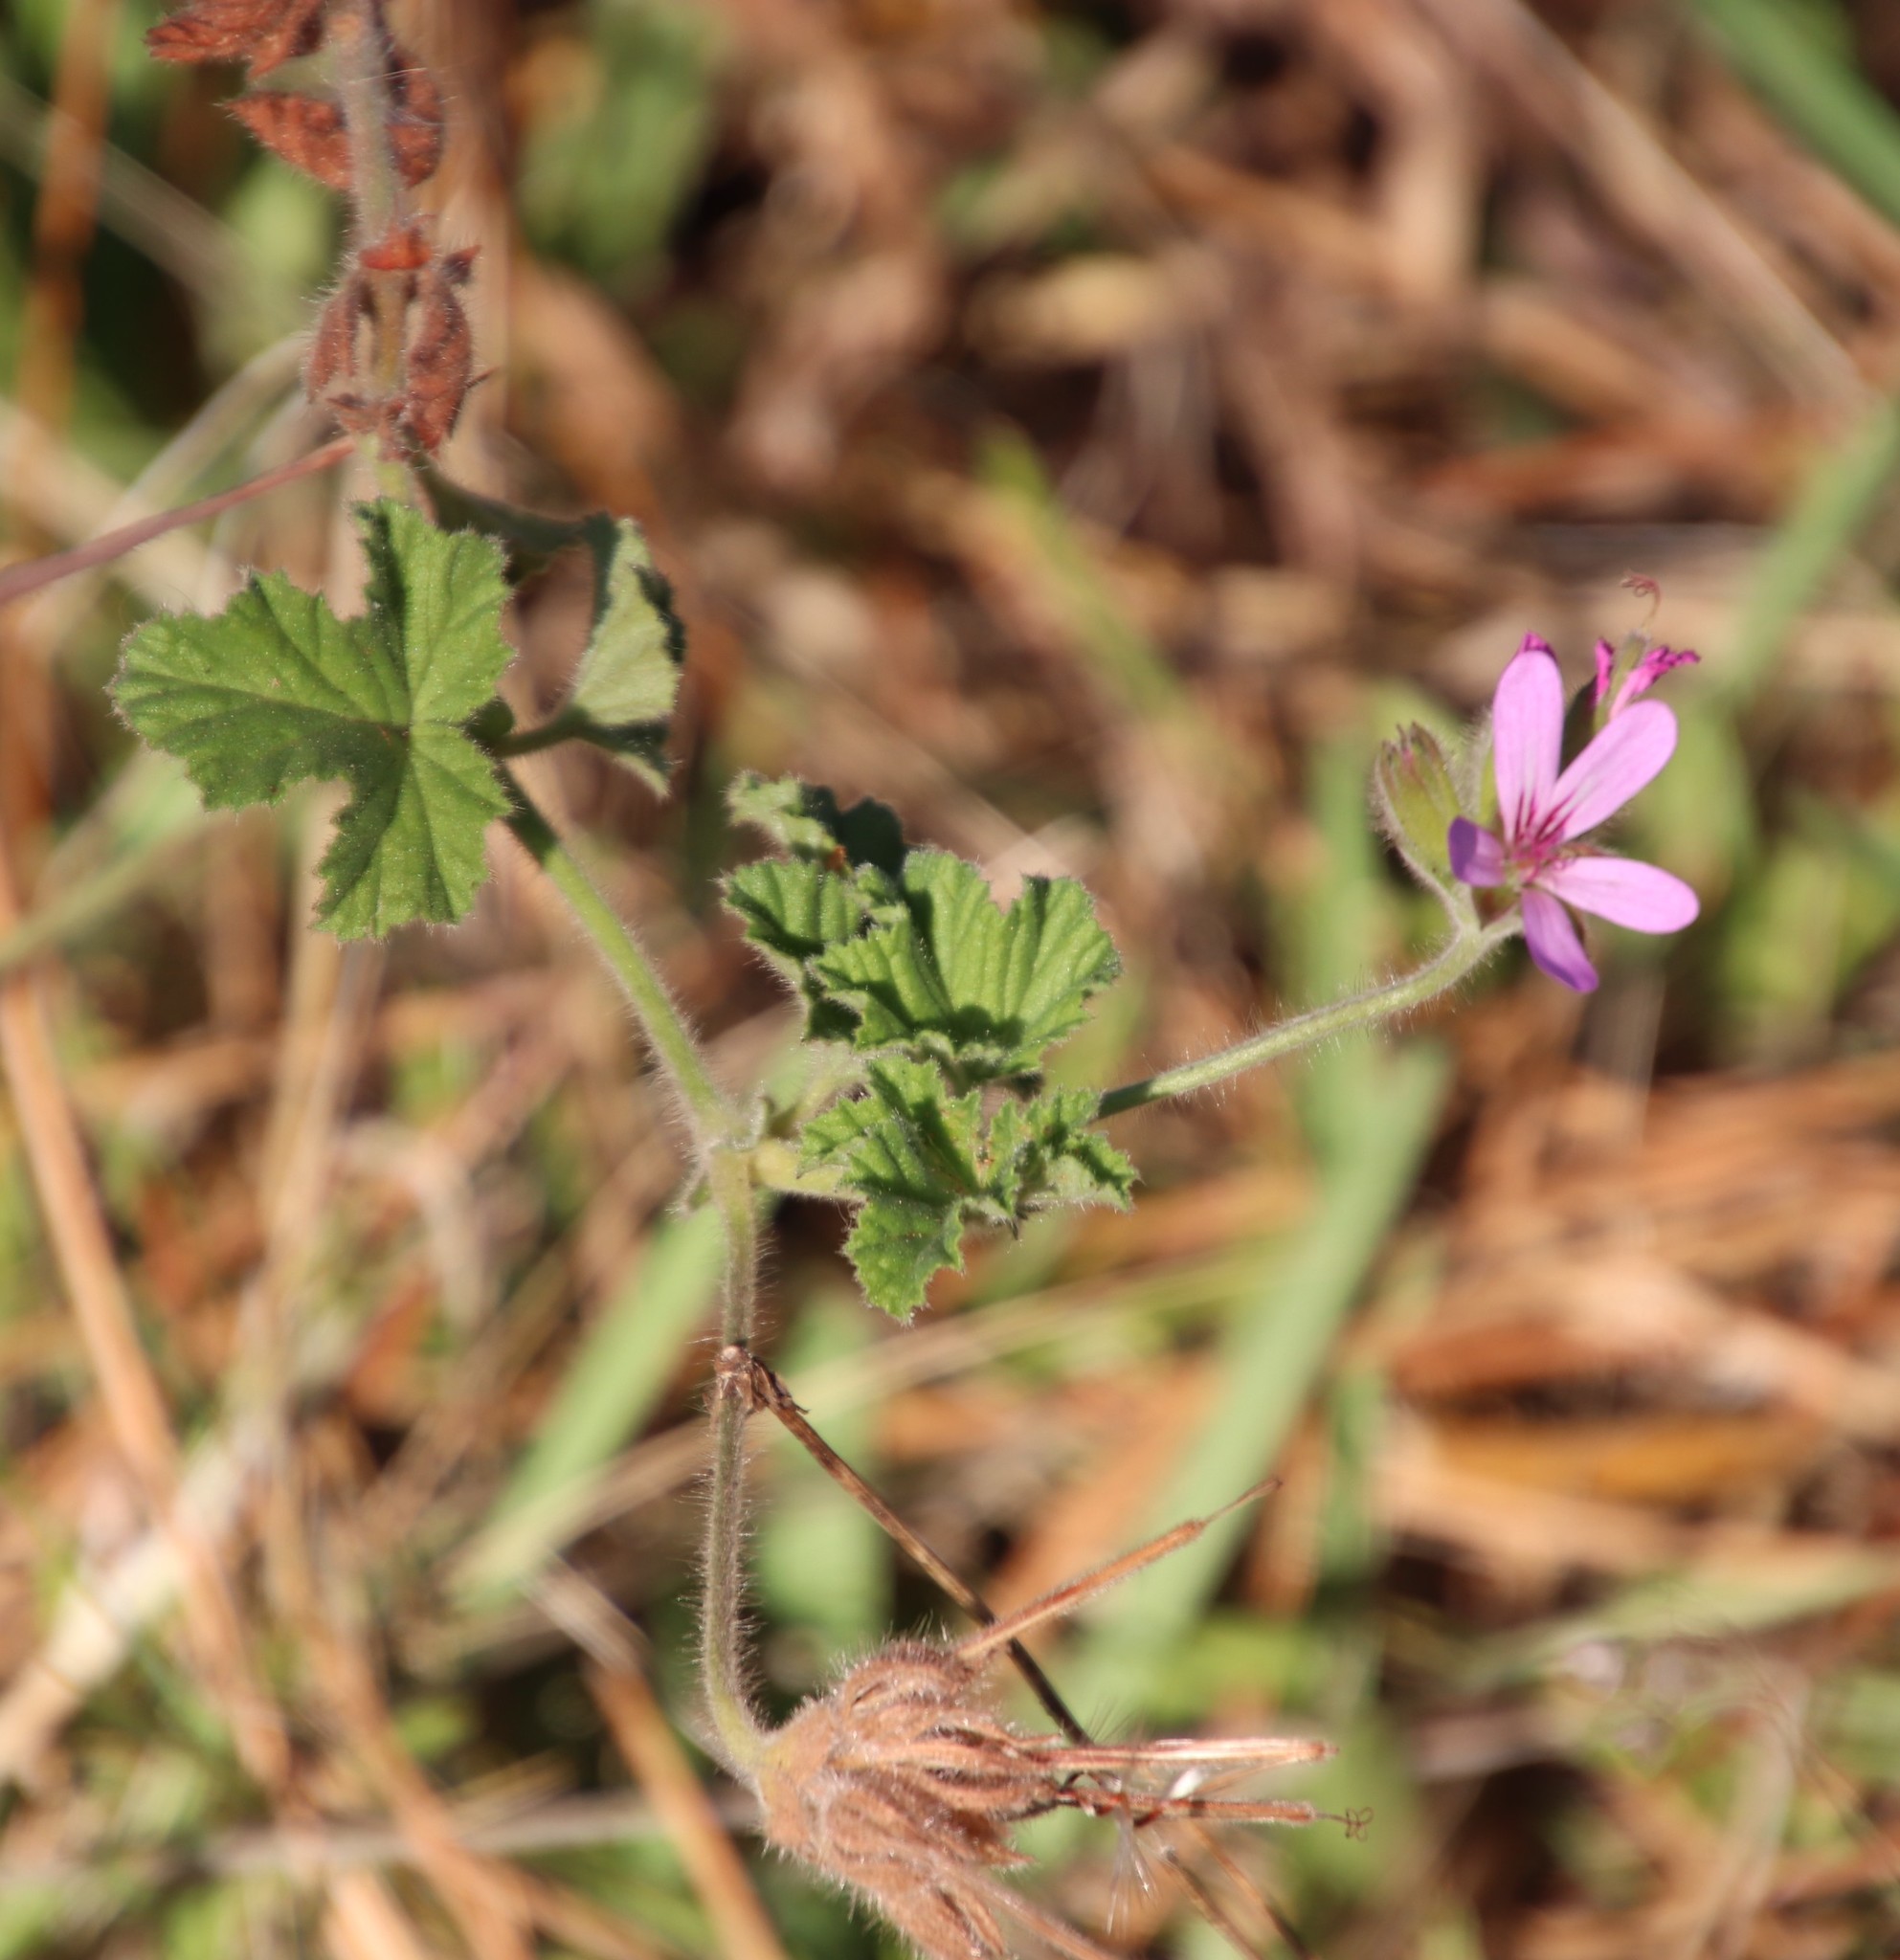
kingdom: Plantae
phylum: Tracheophyta
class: Magnoliopsida
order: Geraniales
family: Geraniaceae
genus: Pelargonium
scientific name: Pelargonium capitatum
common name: Rose scented geranium
